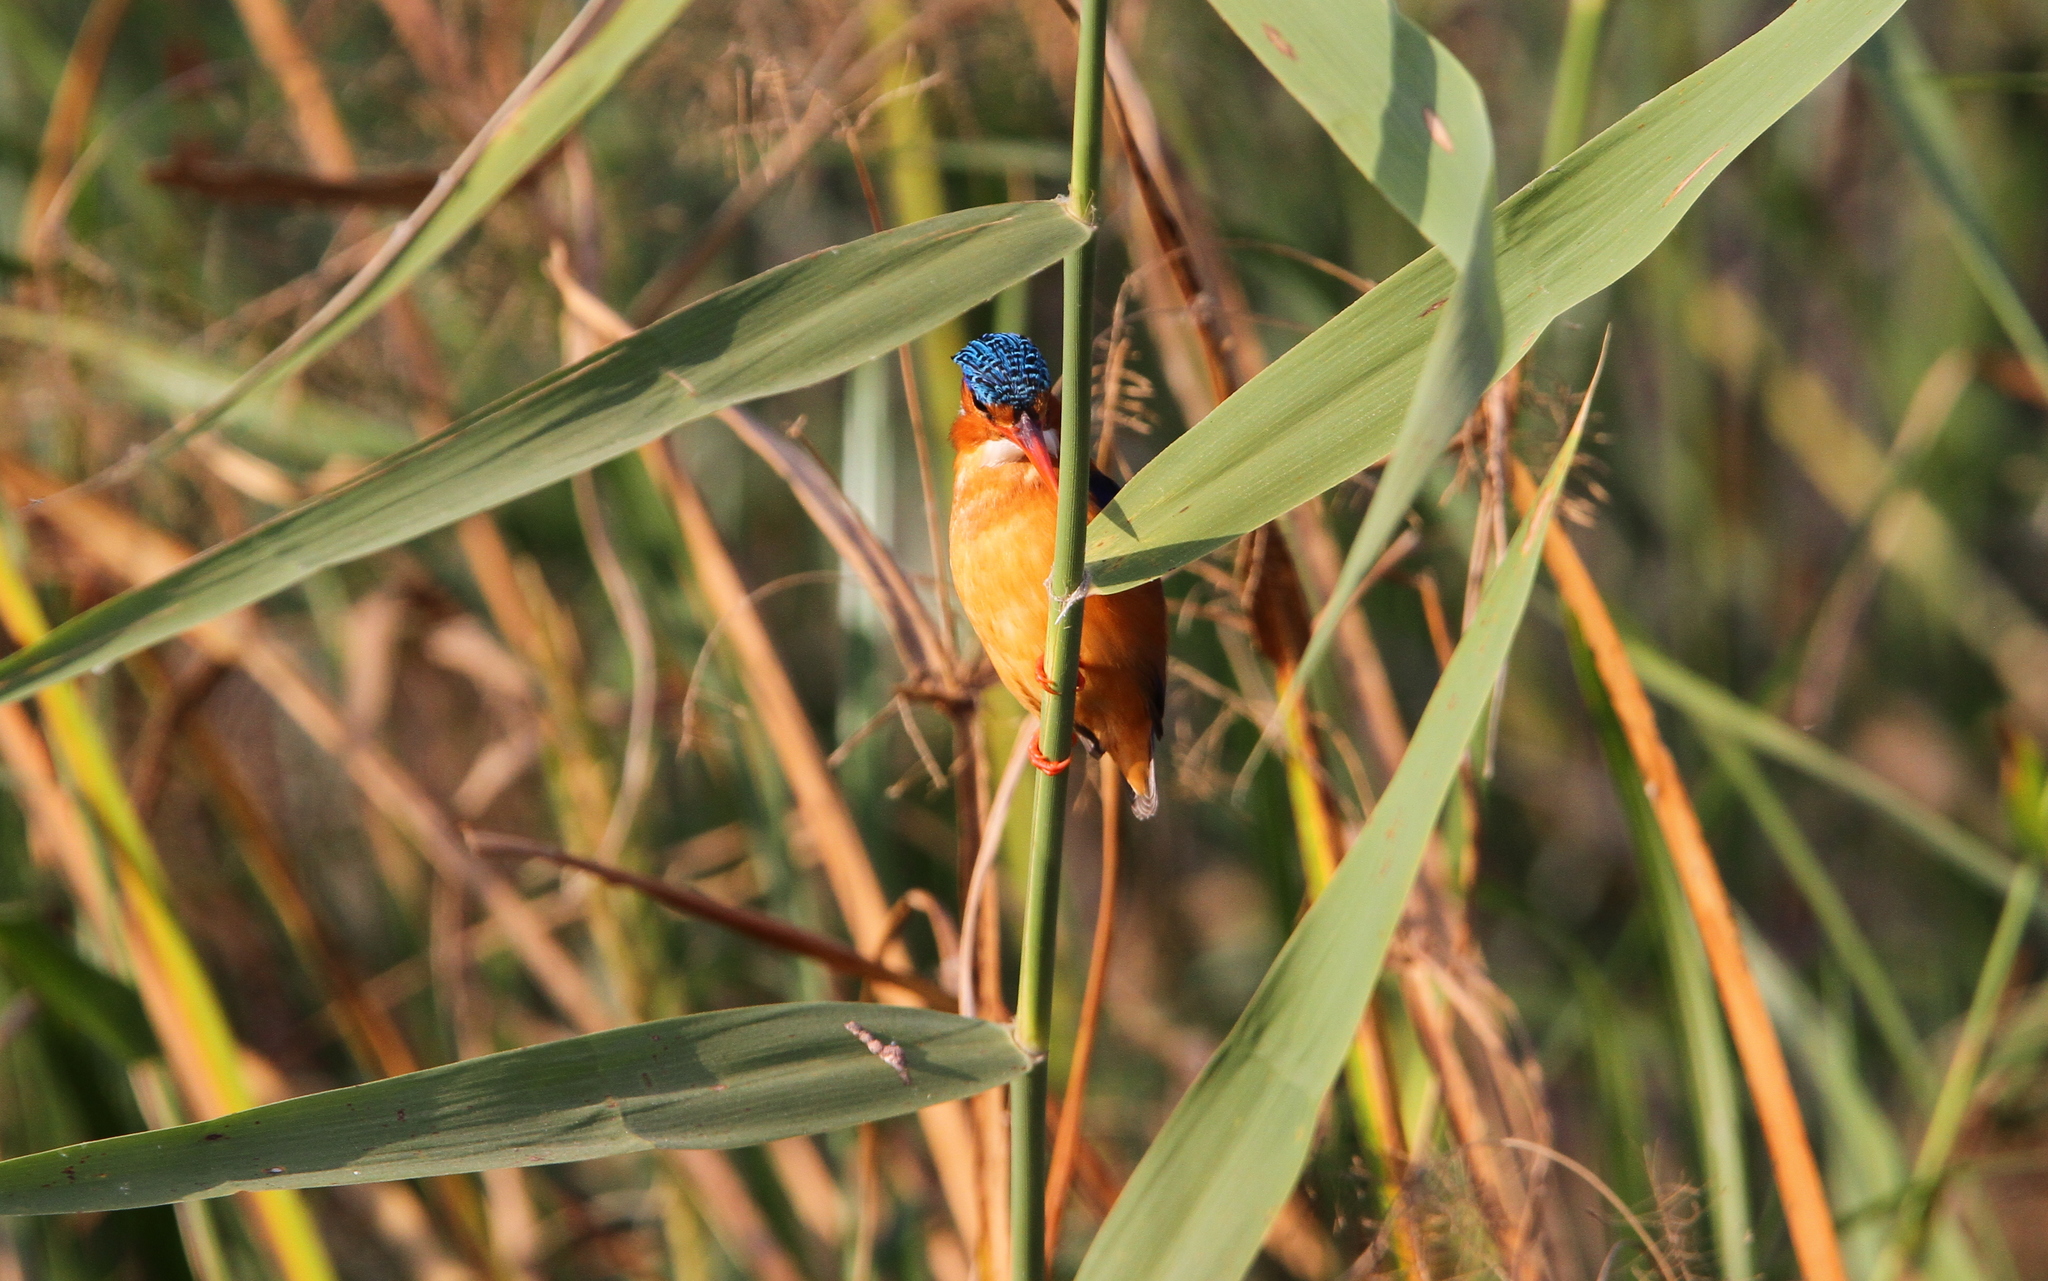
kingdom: Animalia
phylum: Chordata
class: Aves
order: Coraciiformes
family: Alcedinidae
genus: Corythornis
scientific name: Corythornis cristatus
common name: Malachite kingfisher
